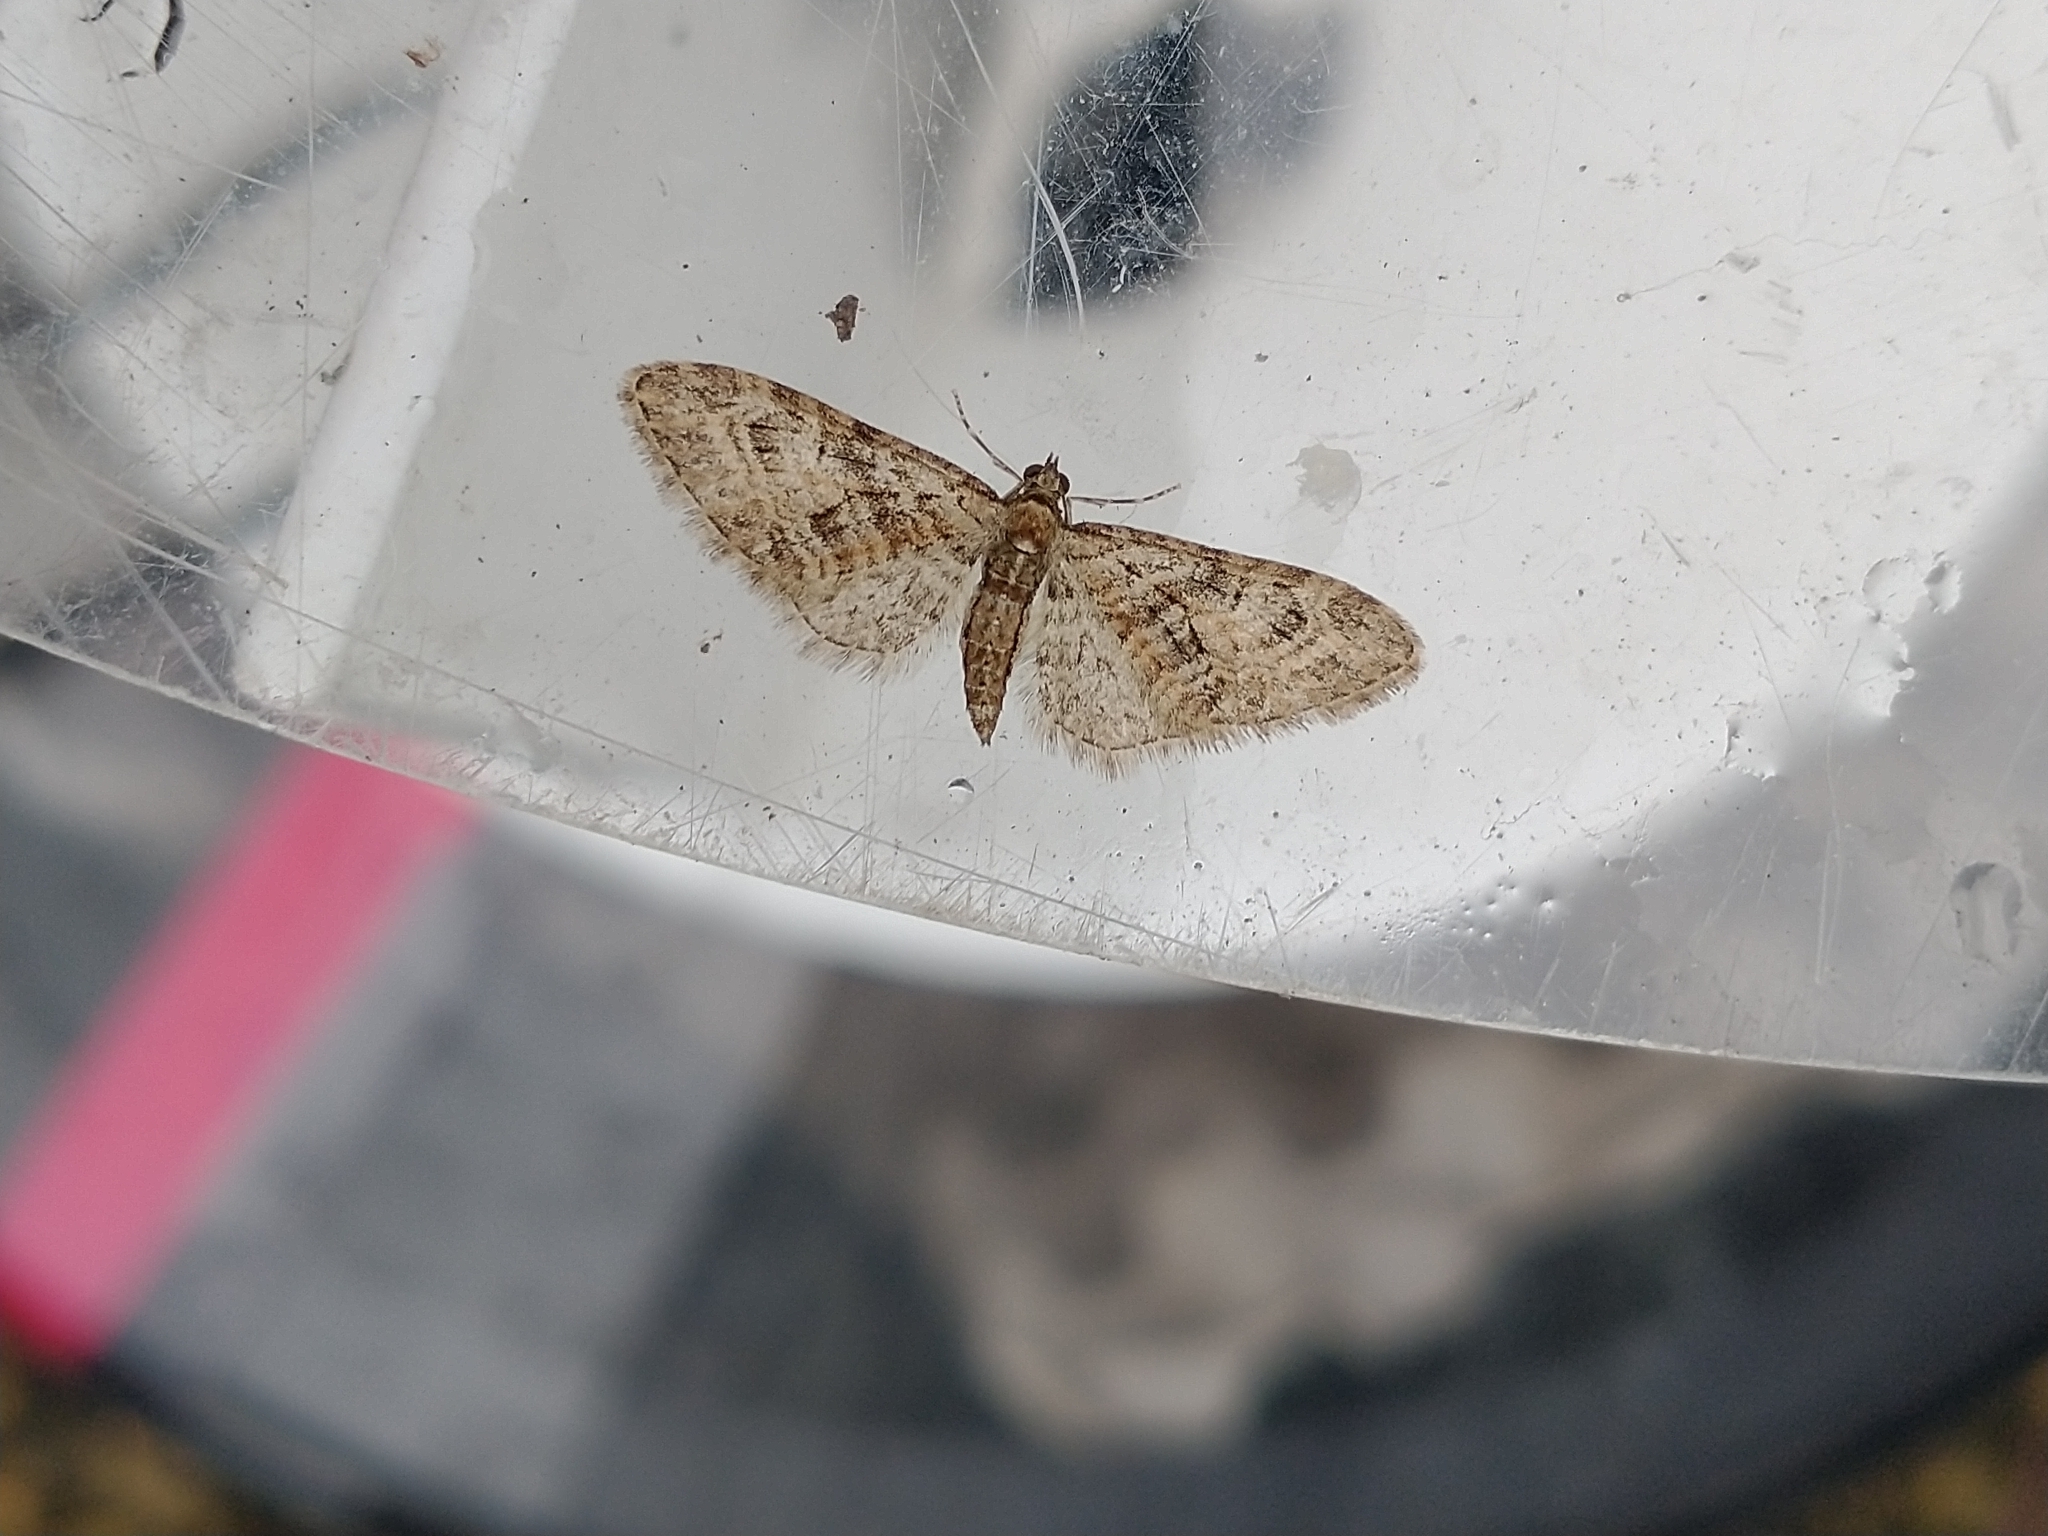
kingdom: Animalia
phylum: Arthropoda
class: Insecta
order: Lepidoptera
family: Geometridae
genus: Eupithecia
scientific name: Eupithecia abbreviata
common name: Brindled pug
